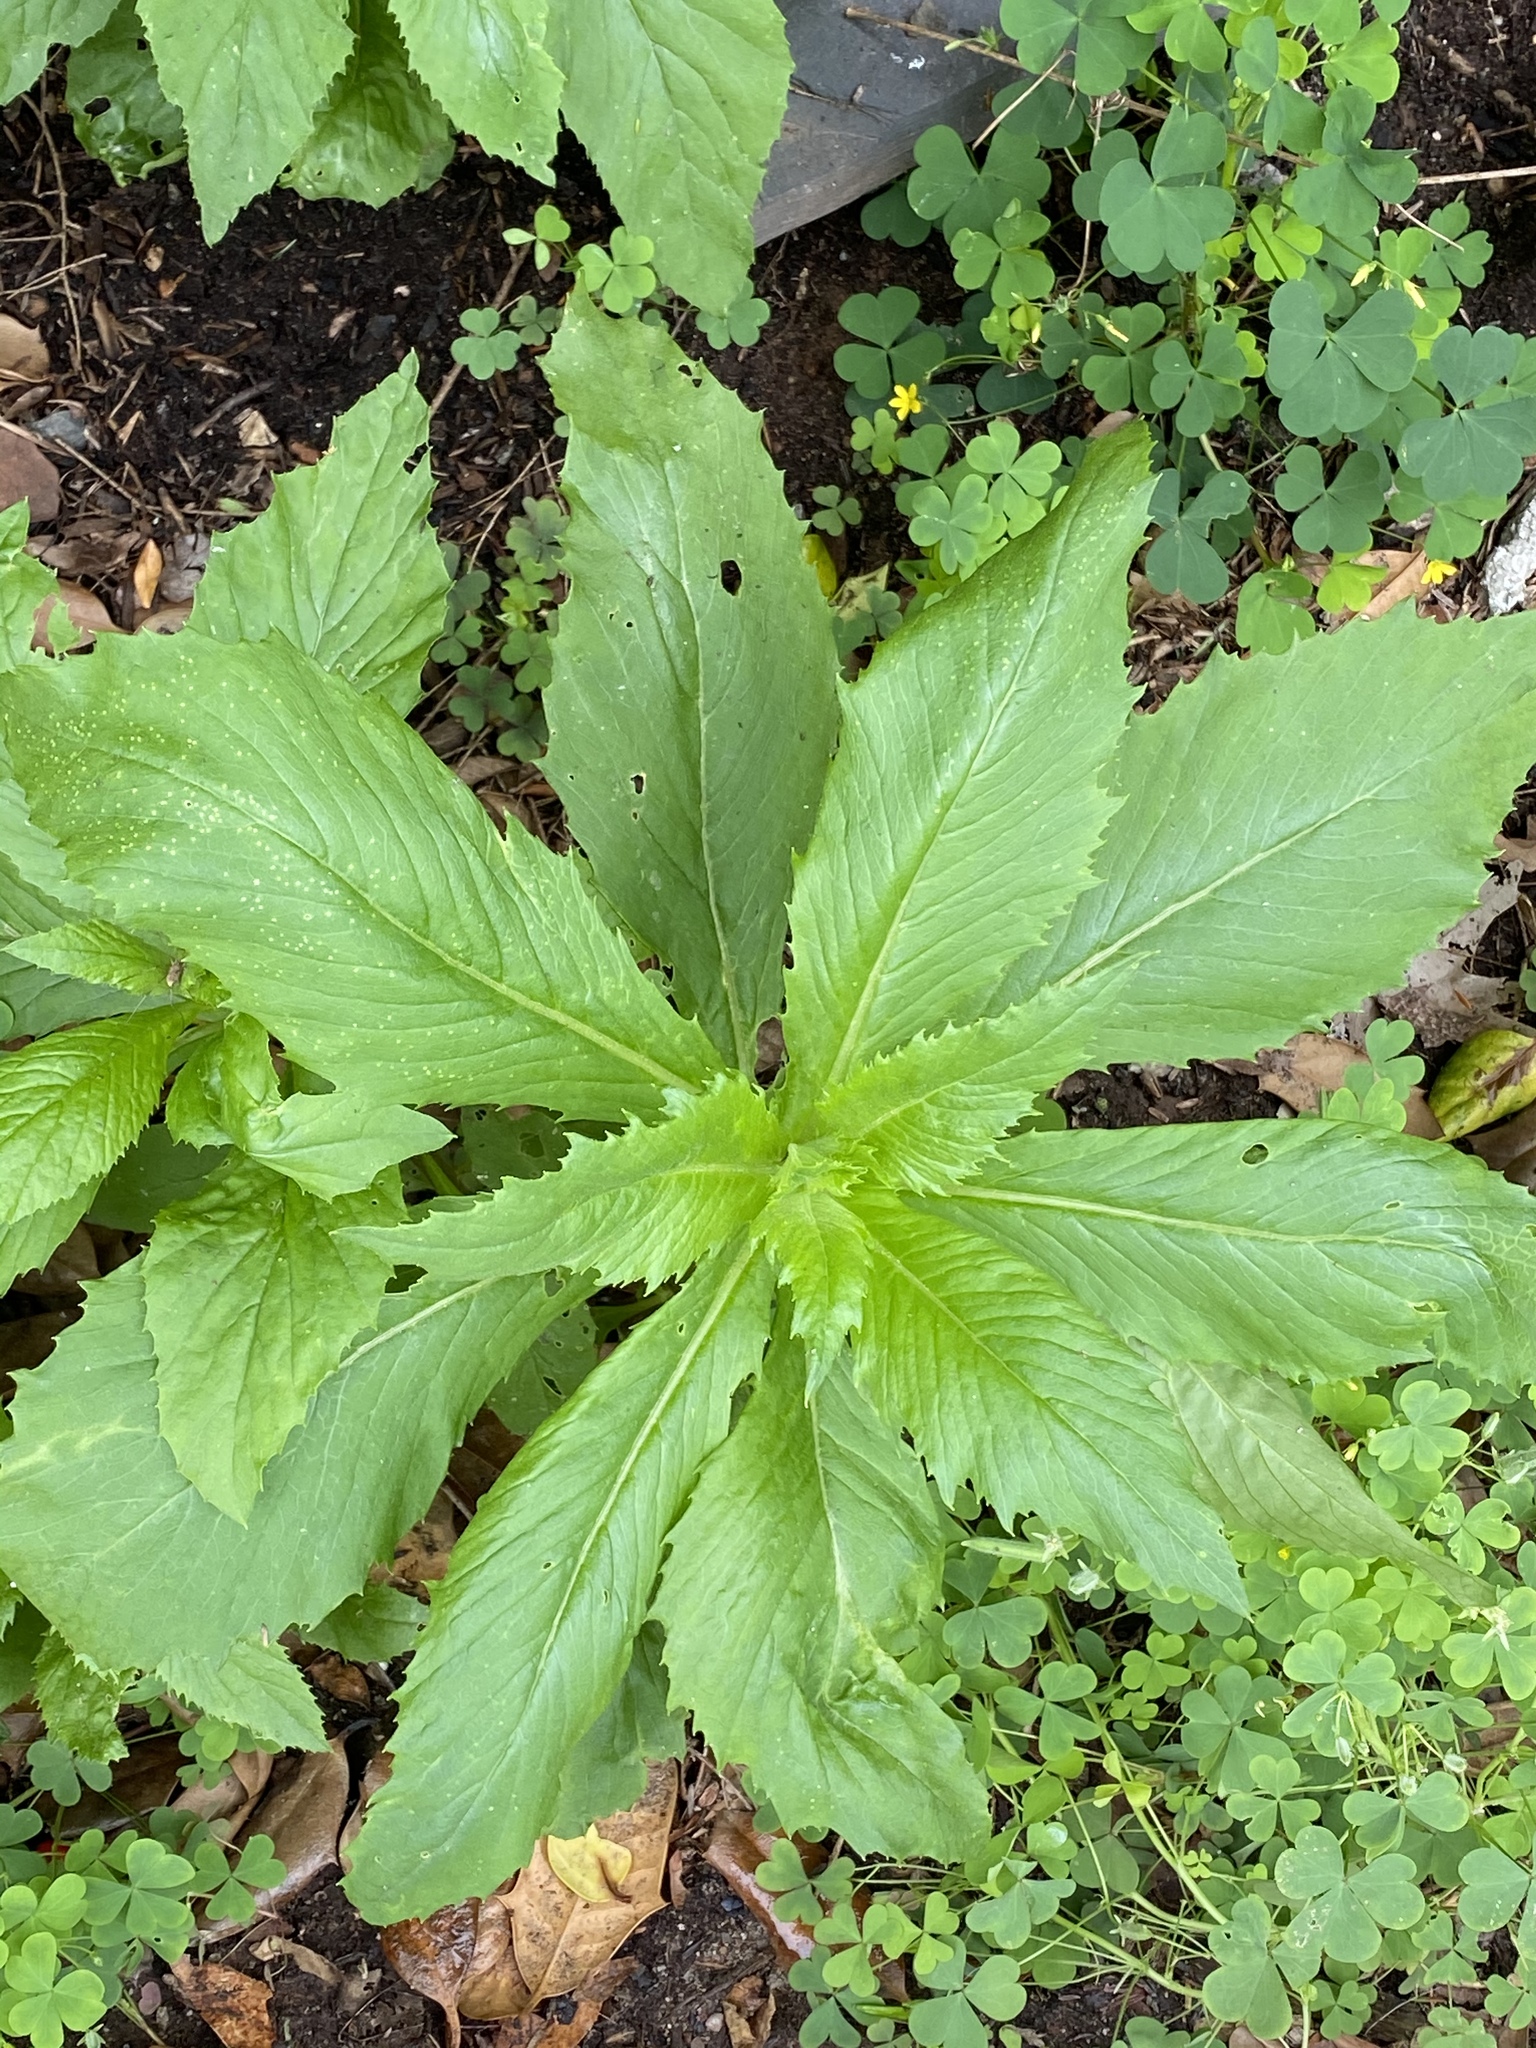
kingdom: Plantae
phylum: Tracheophyta
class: Magnoliopsida
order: Asterales
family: Asteraceae
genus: Erechtites
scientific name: Erechtites hieraciifolius
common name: American burnweed
